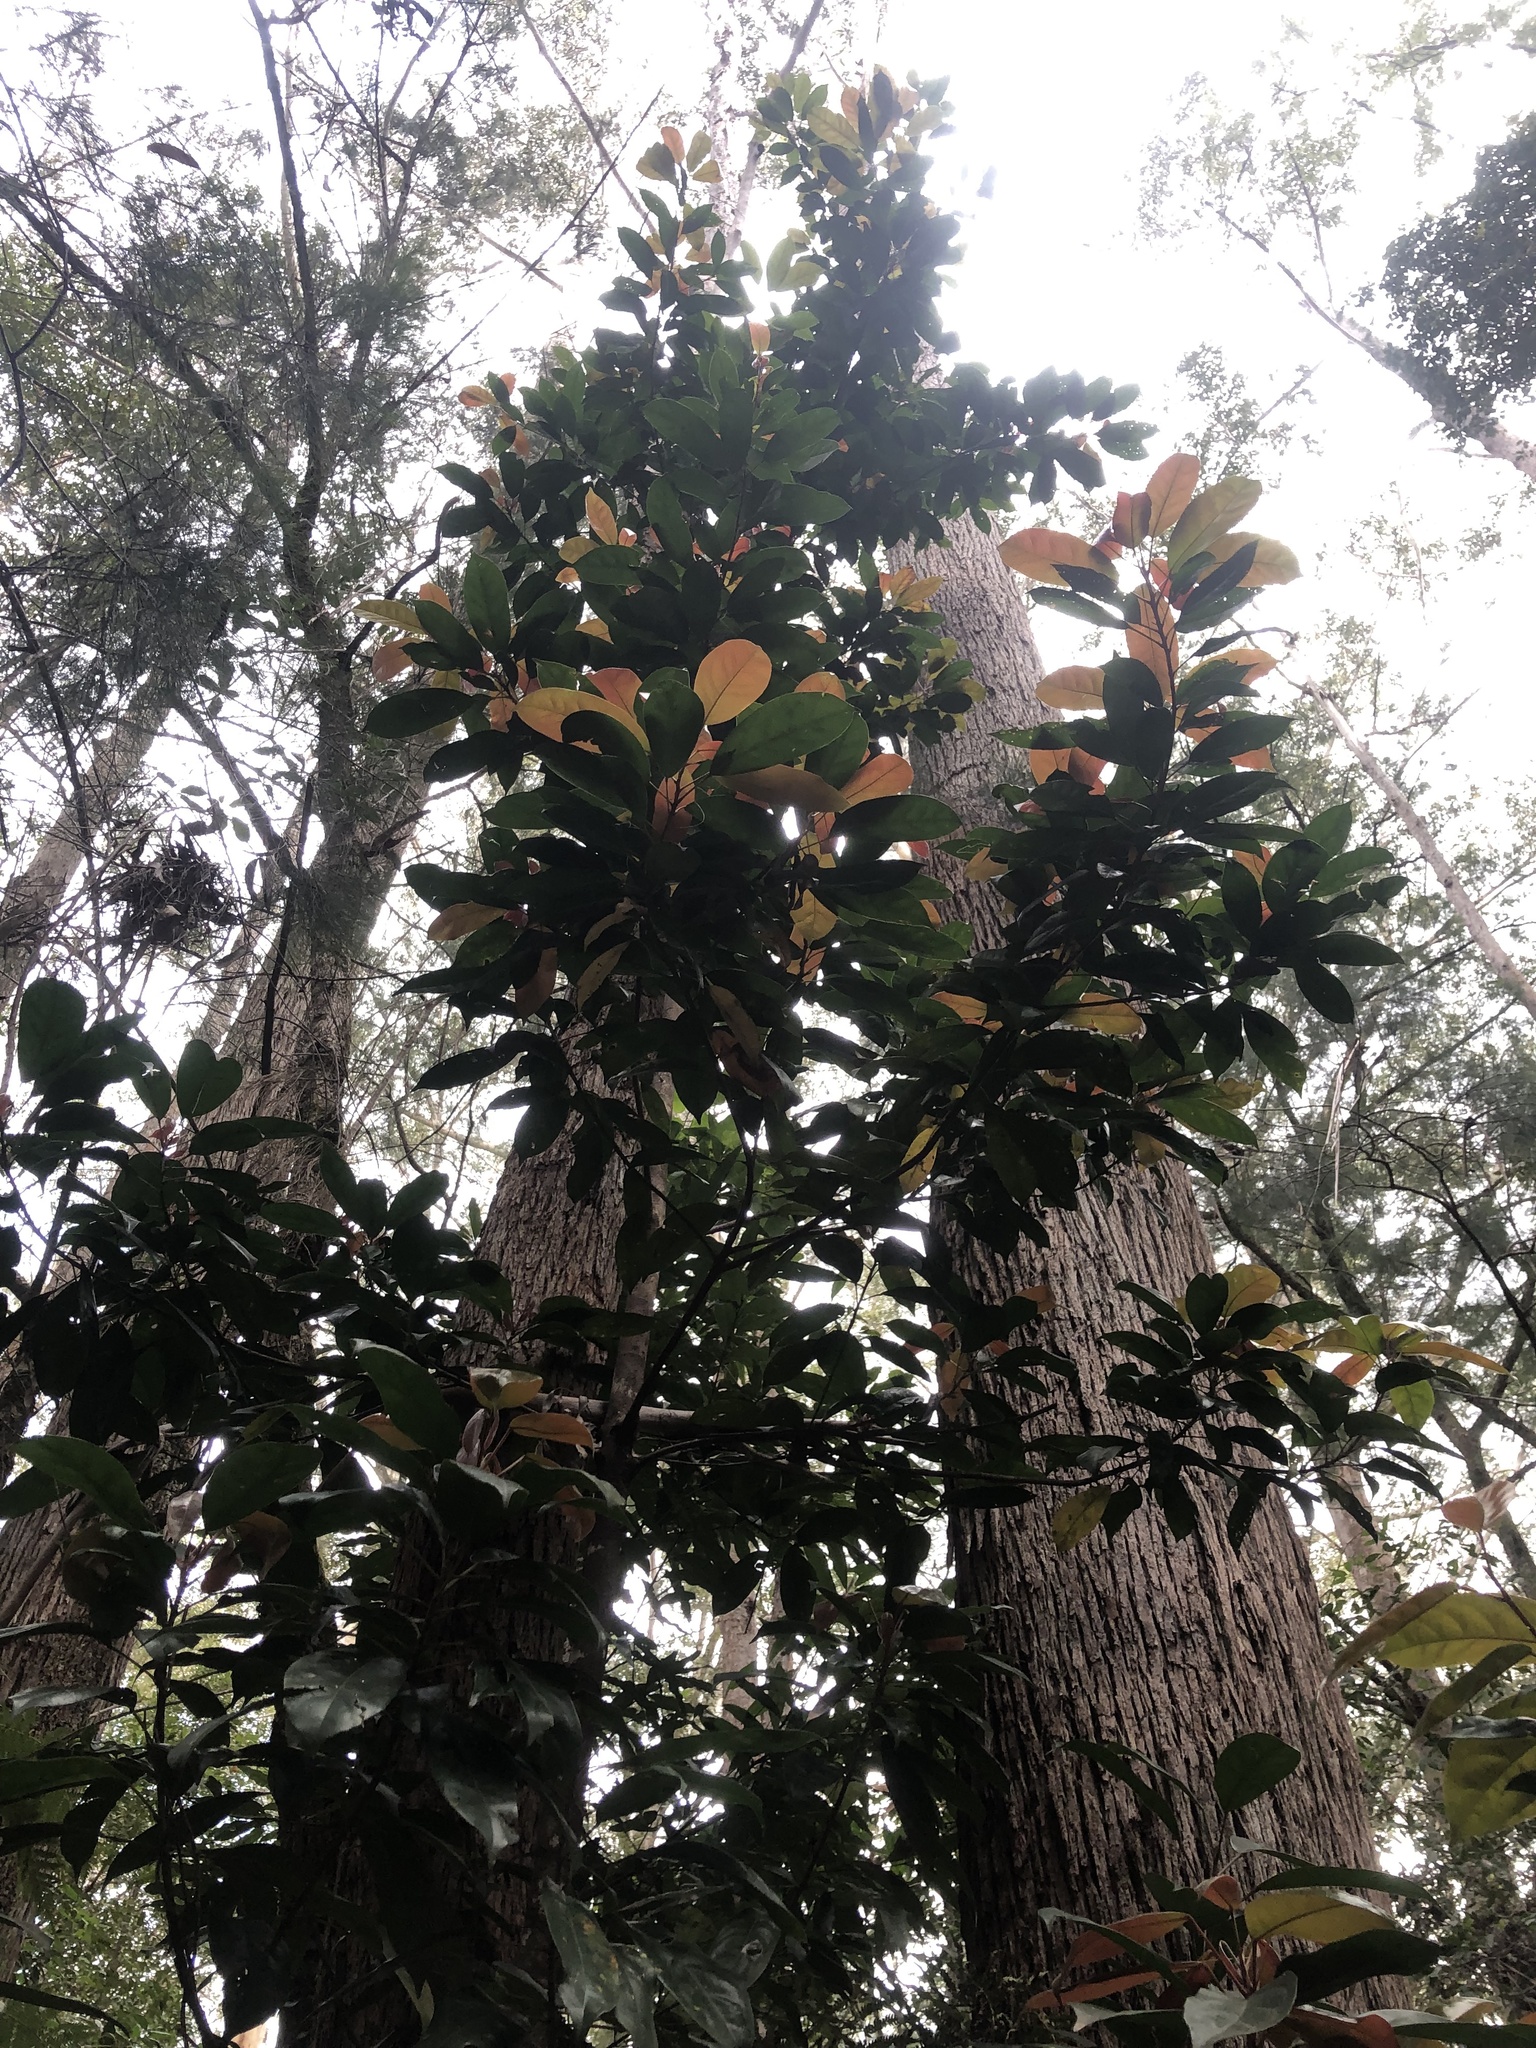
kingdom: Plantae
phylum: Tracheophyta
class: Magnoliopsida
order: Oxalidales
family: Elaeocarpaceae
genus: Elaeocarpus
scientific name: Elaeocarpus eumundi
